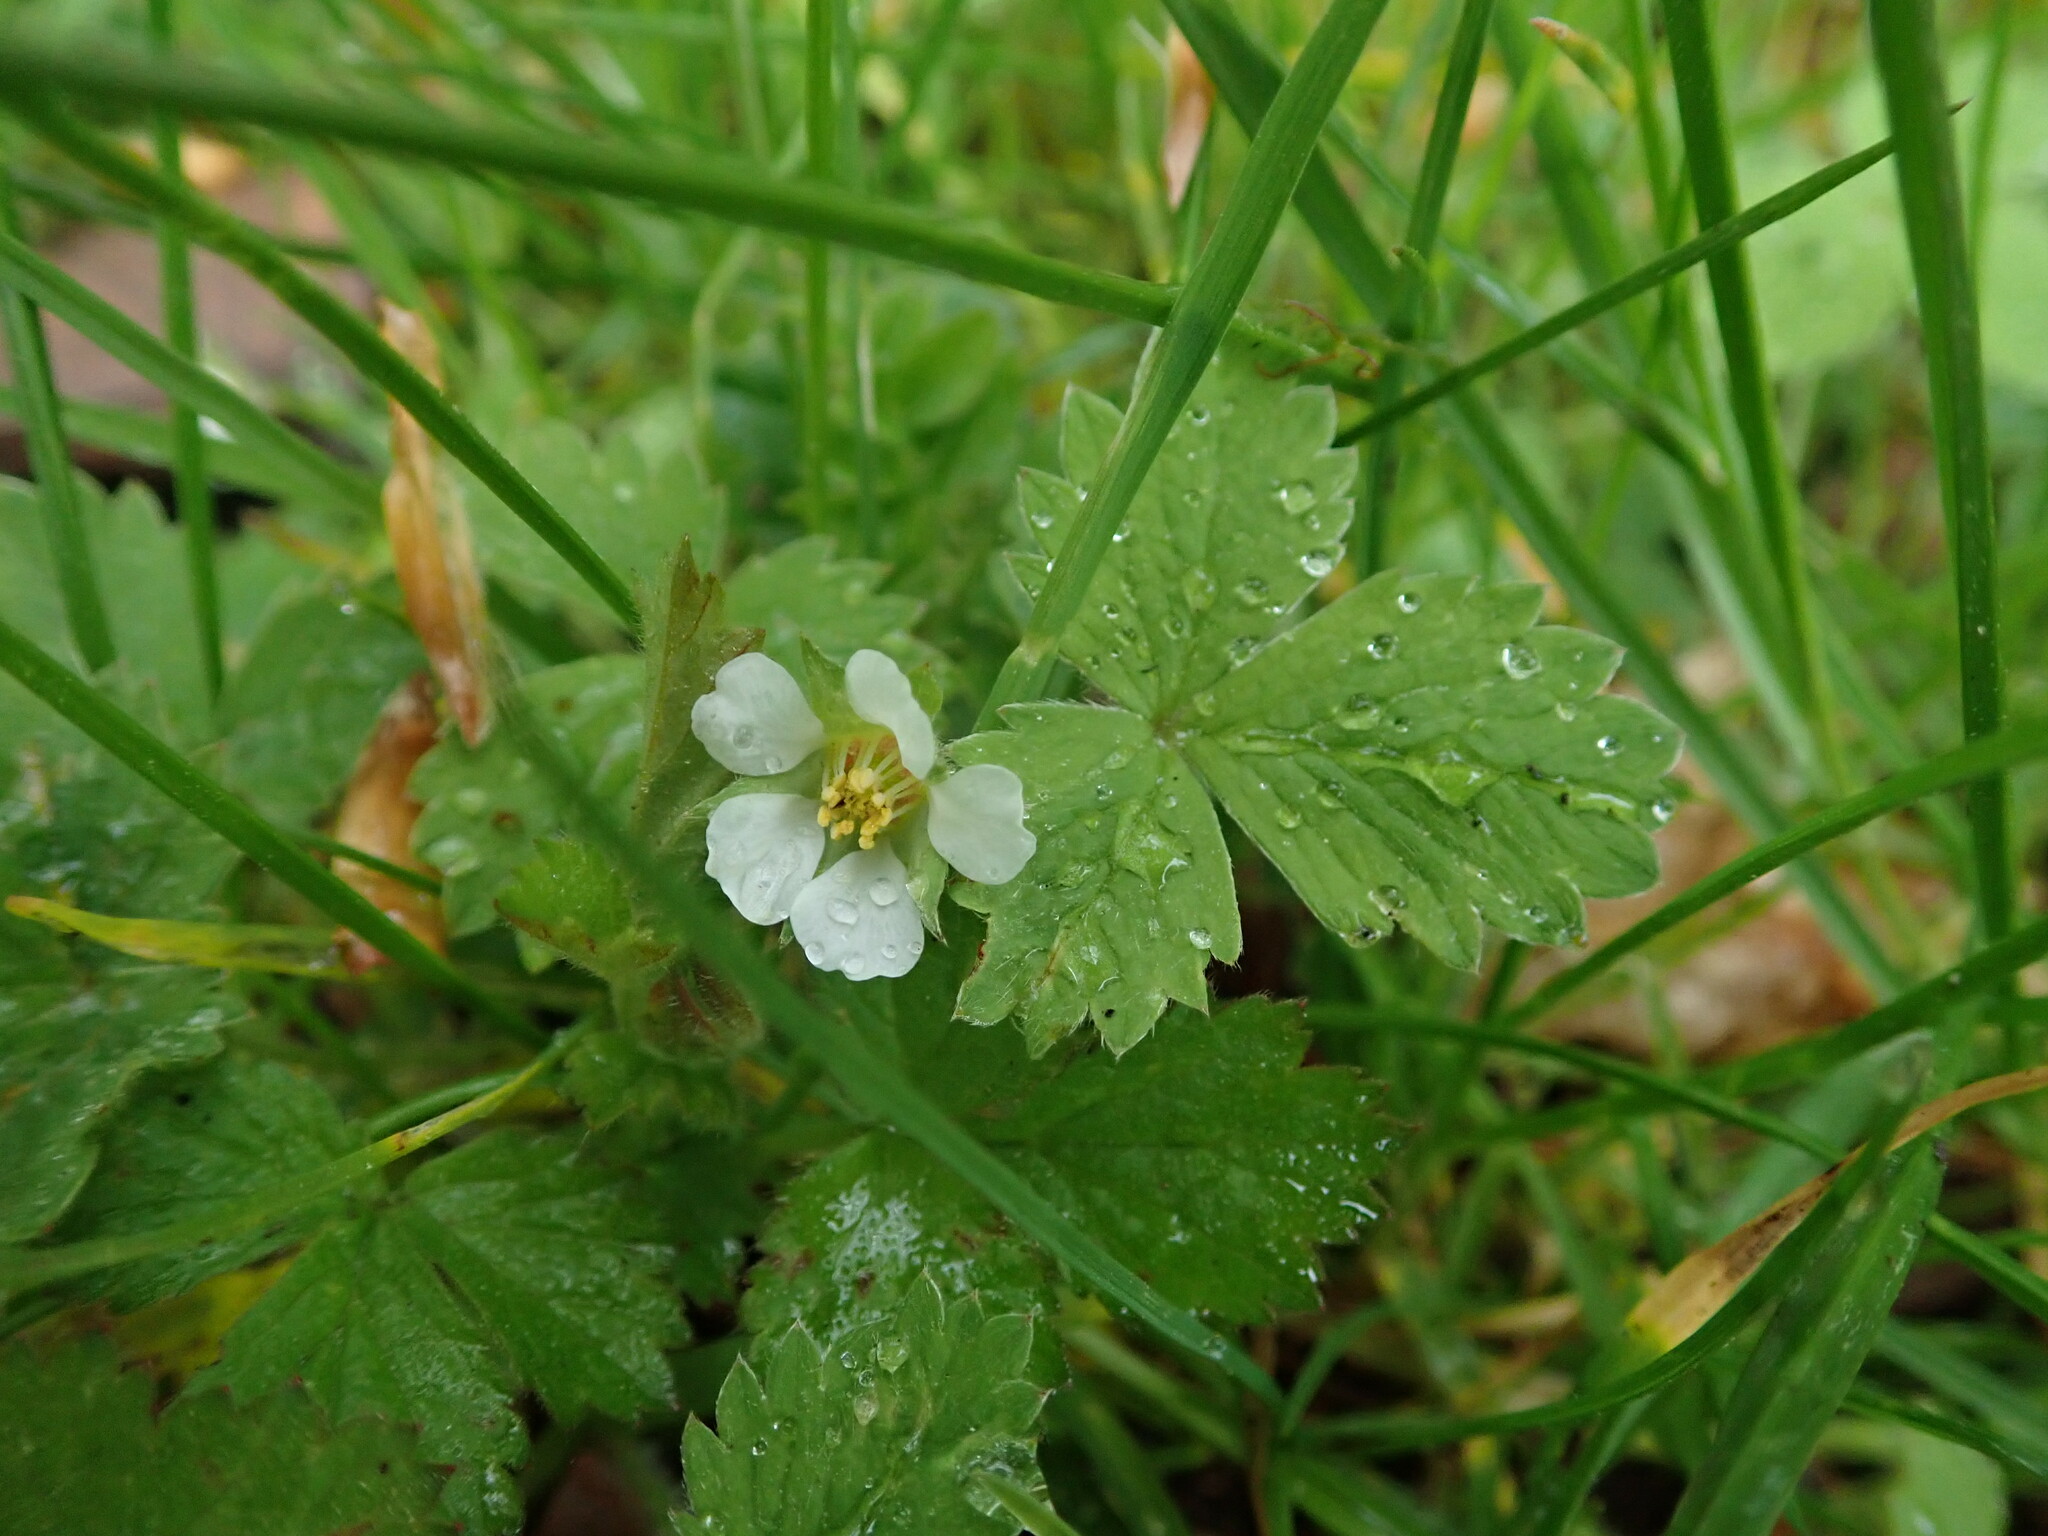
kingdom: Plantae
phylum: Tracheophyta
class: Magnoliopsida
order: Rosales
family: Rosaceae
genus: Potentilla
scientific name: Potentilla sterilis
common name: Barren strawberry
